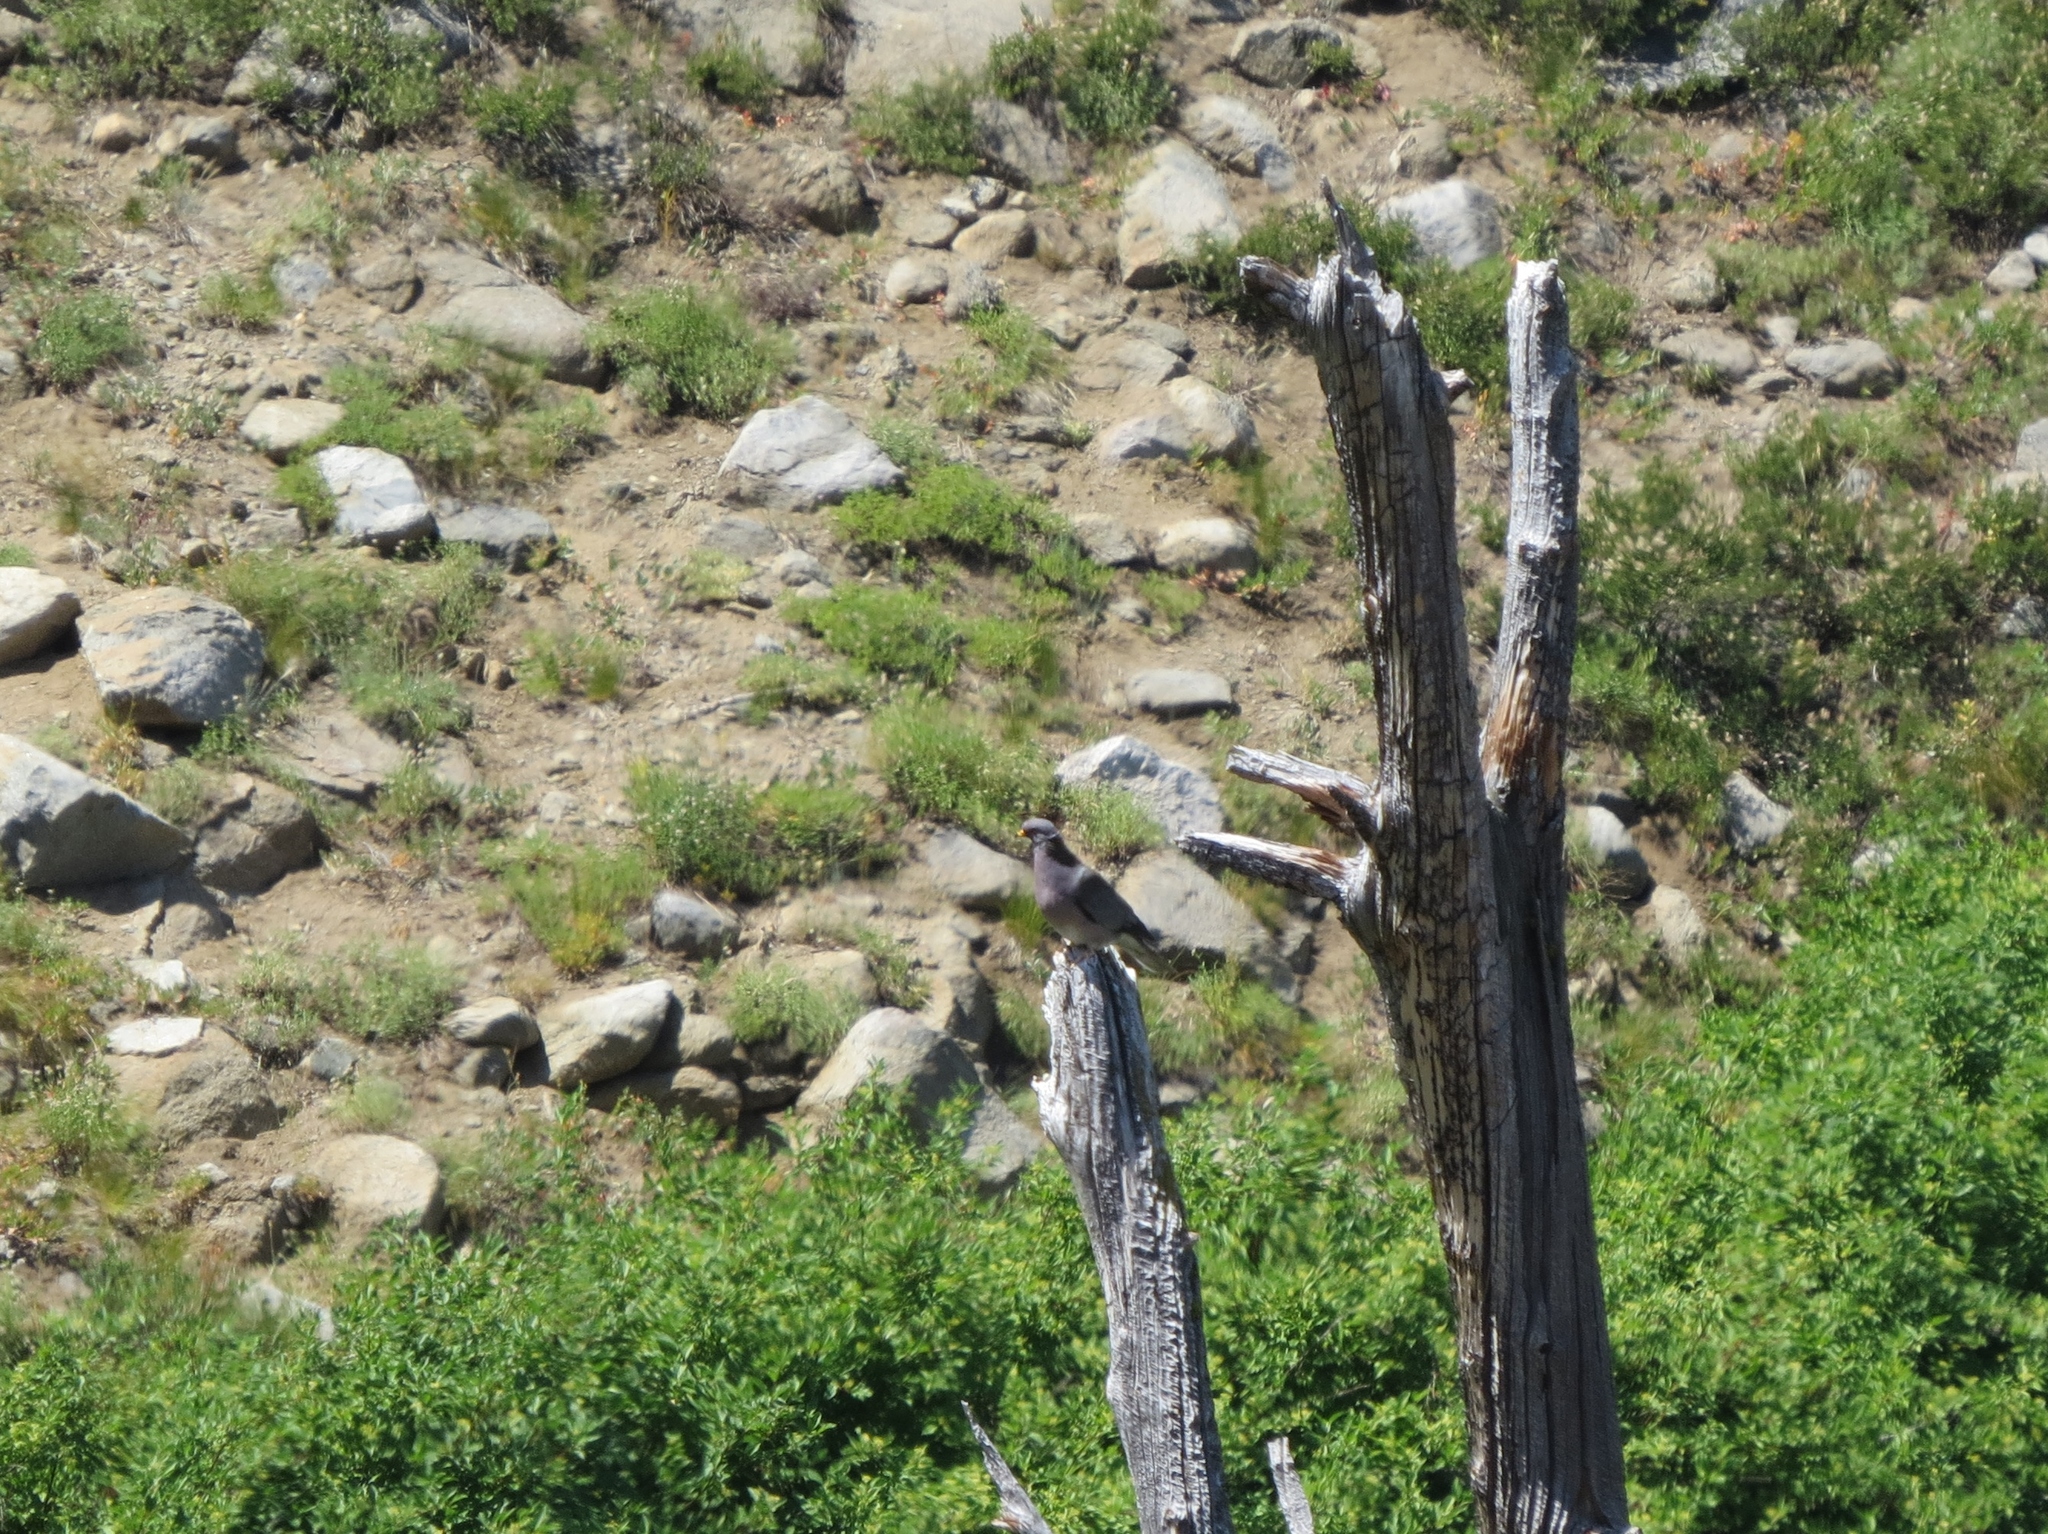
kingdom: Animalia
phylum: Chordata
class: Aves
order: Columbiformes
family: Columbidae
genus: Patagioenas
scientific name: Patagioenas fasciata
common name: Band-tailed pigeon
